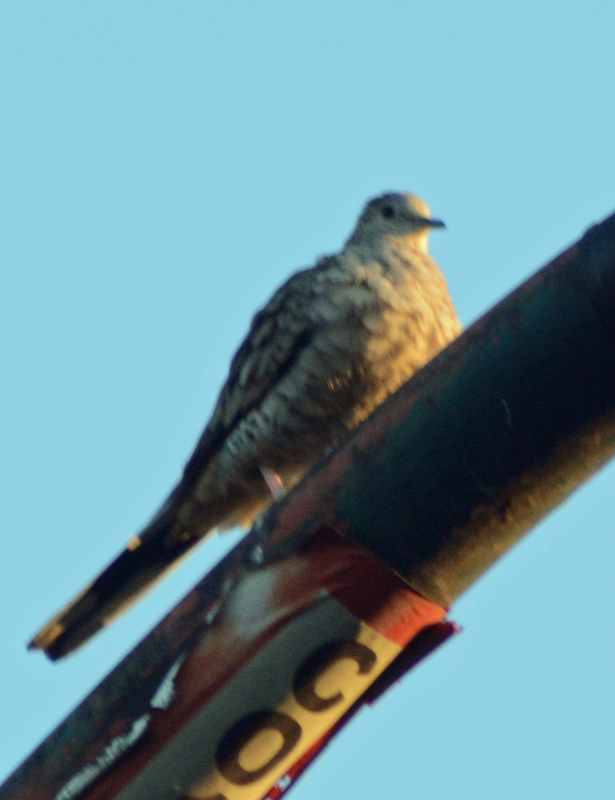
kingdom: Animalia
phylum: Chordata
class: Aves
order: Columbiformes
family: Columbidae
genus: Columbina
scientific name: Columbina inca
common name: Inca dove
